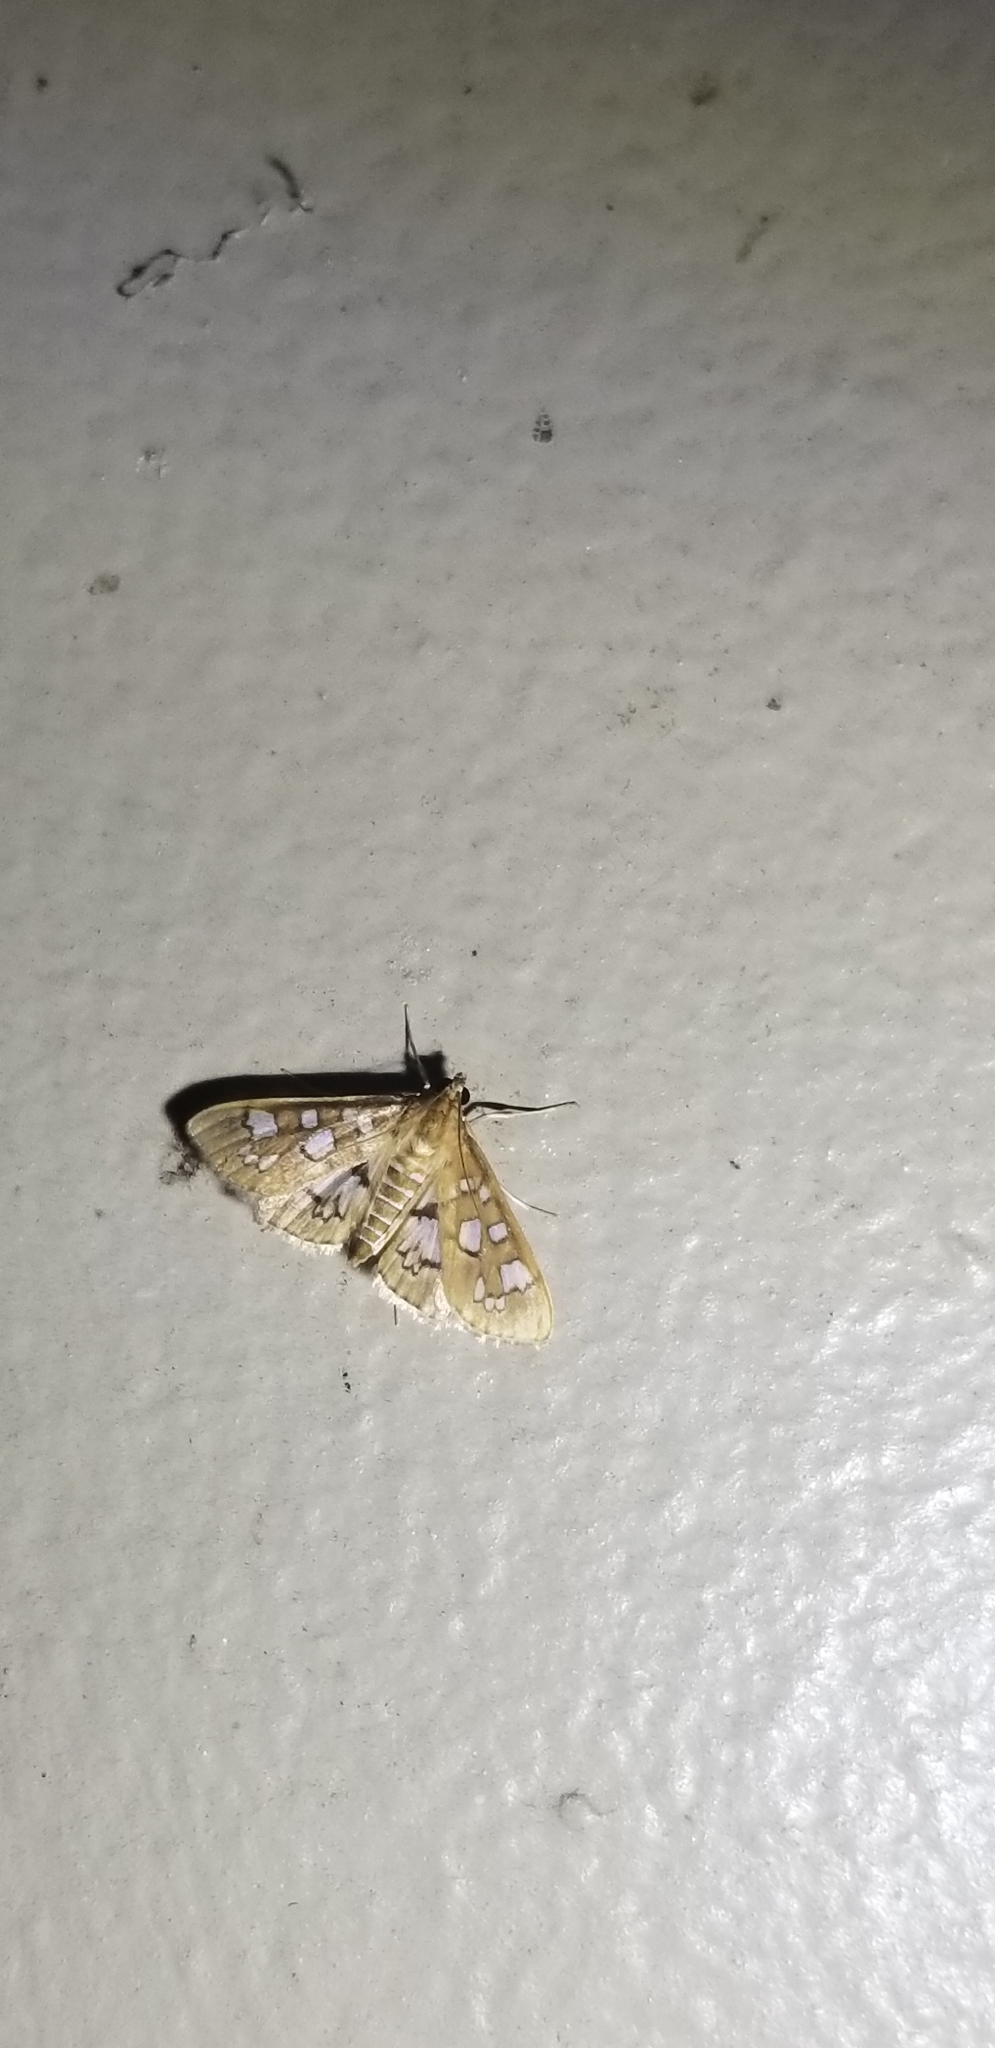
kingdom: Animalia
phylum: Arthropoda
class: Insecta
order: Lepidoptera
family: Crambidae
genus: Samea
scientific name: Samea baccatalis
